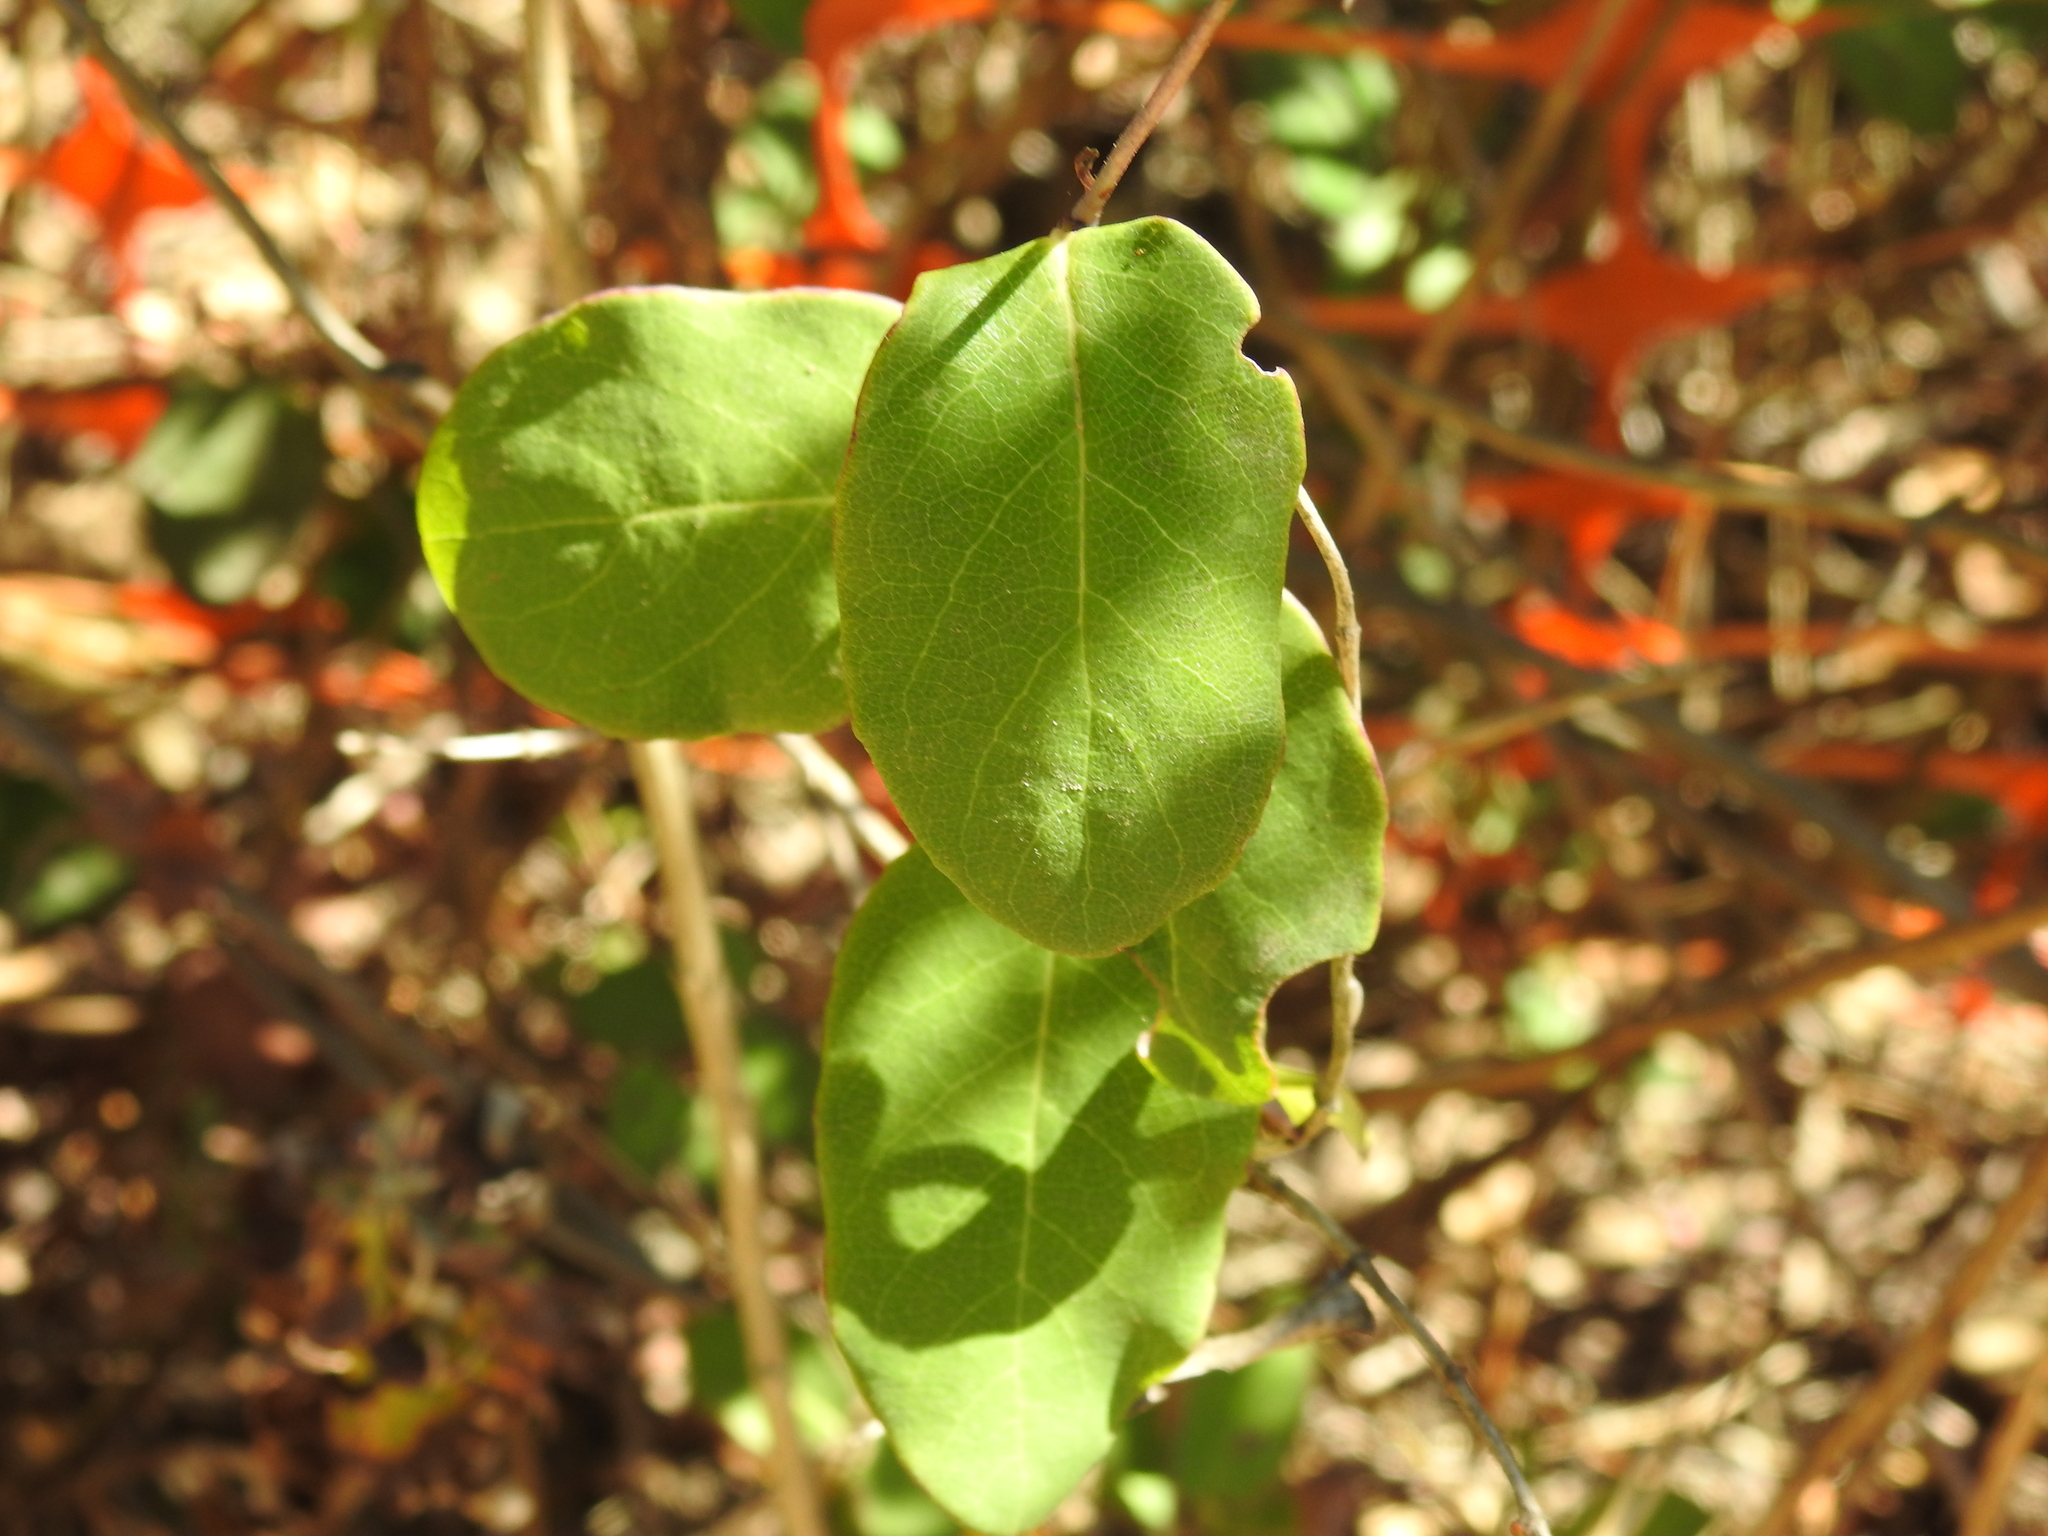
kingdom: Plantae
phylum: Tracheophyta
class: Magnoliopsida
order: Dipsacales
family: Caprifoliaceae
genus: Lonicera
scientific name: Lonicera hispidula
